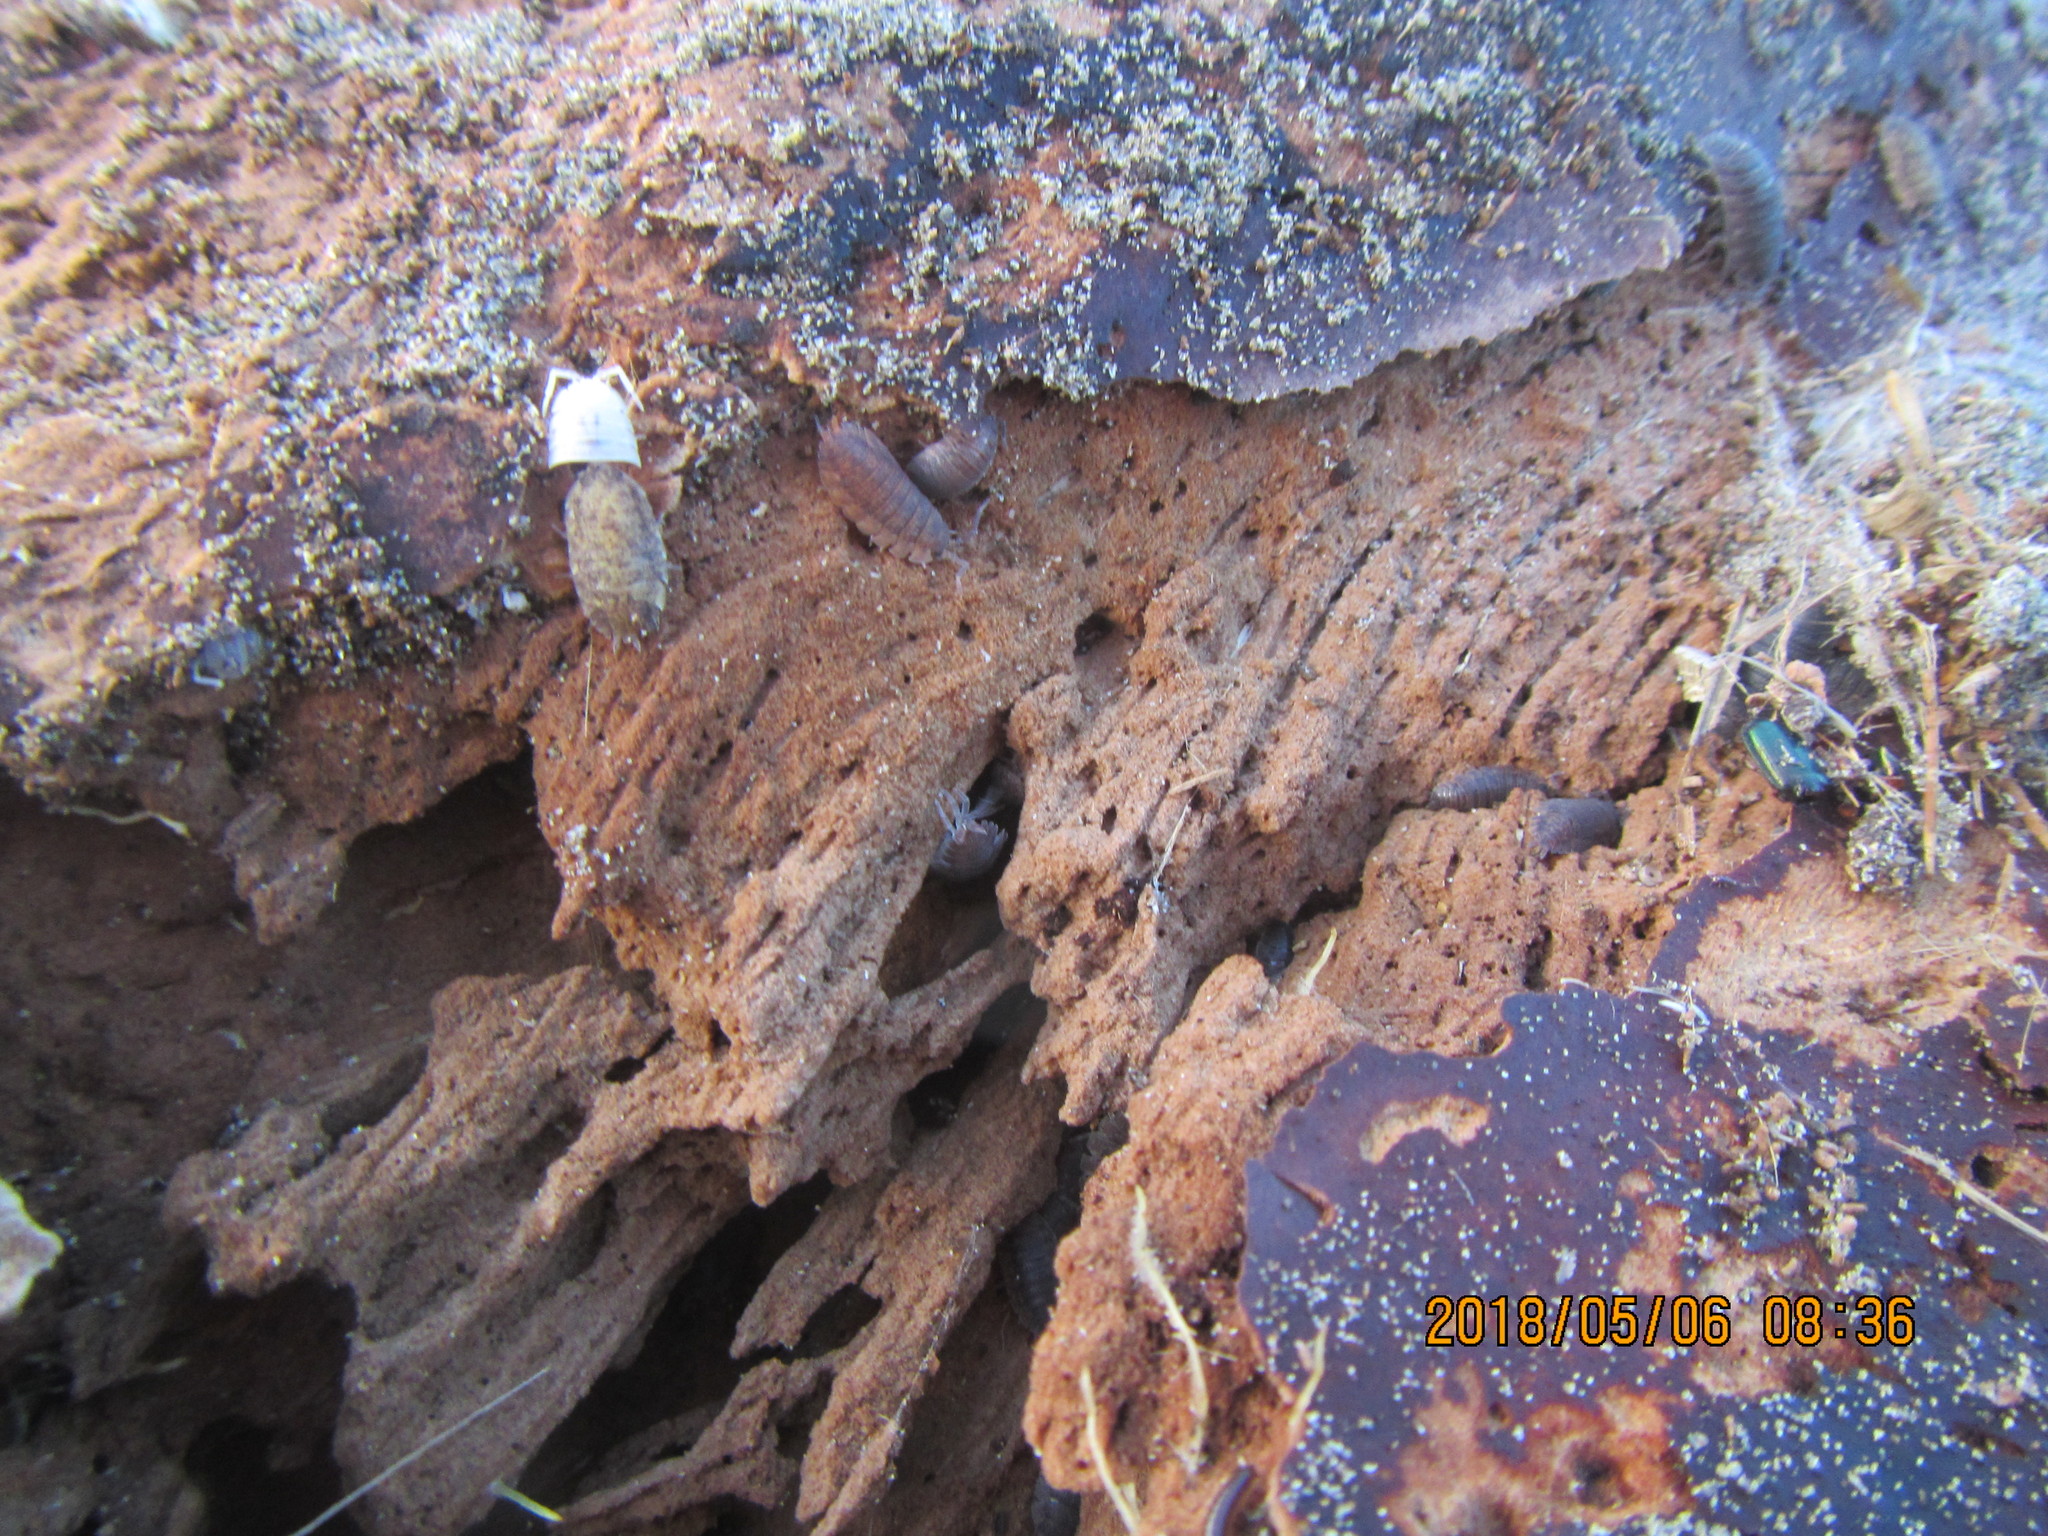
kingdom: Animalia
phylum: Arthropoda
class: Malacostraca
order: Isopoda
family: Porcellionidae
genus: Porcellio
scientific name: Porcellio scaber
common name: Common rough woodlouse
